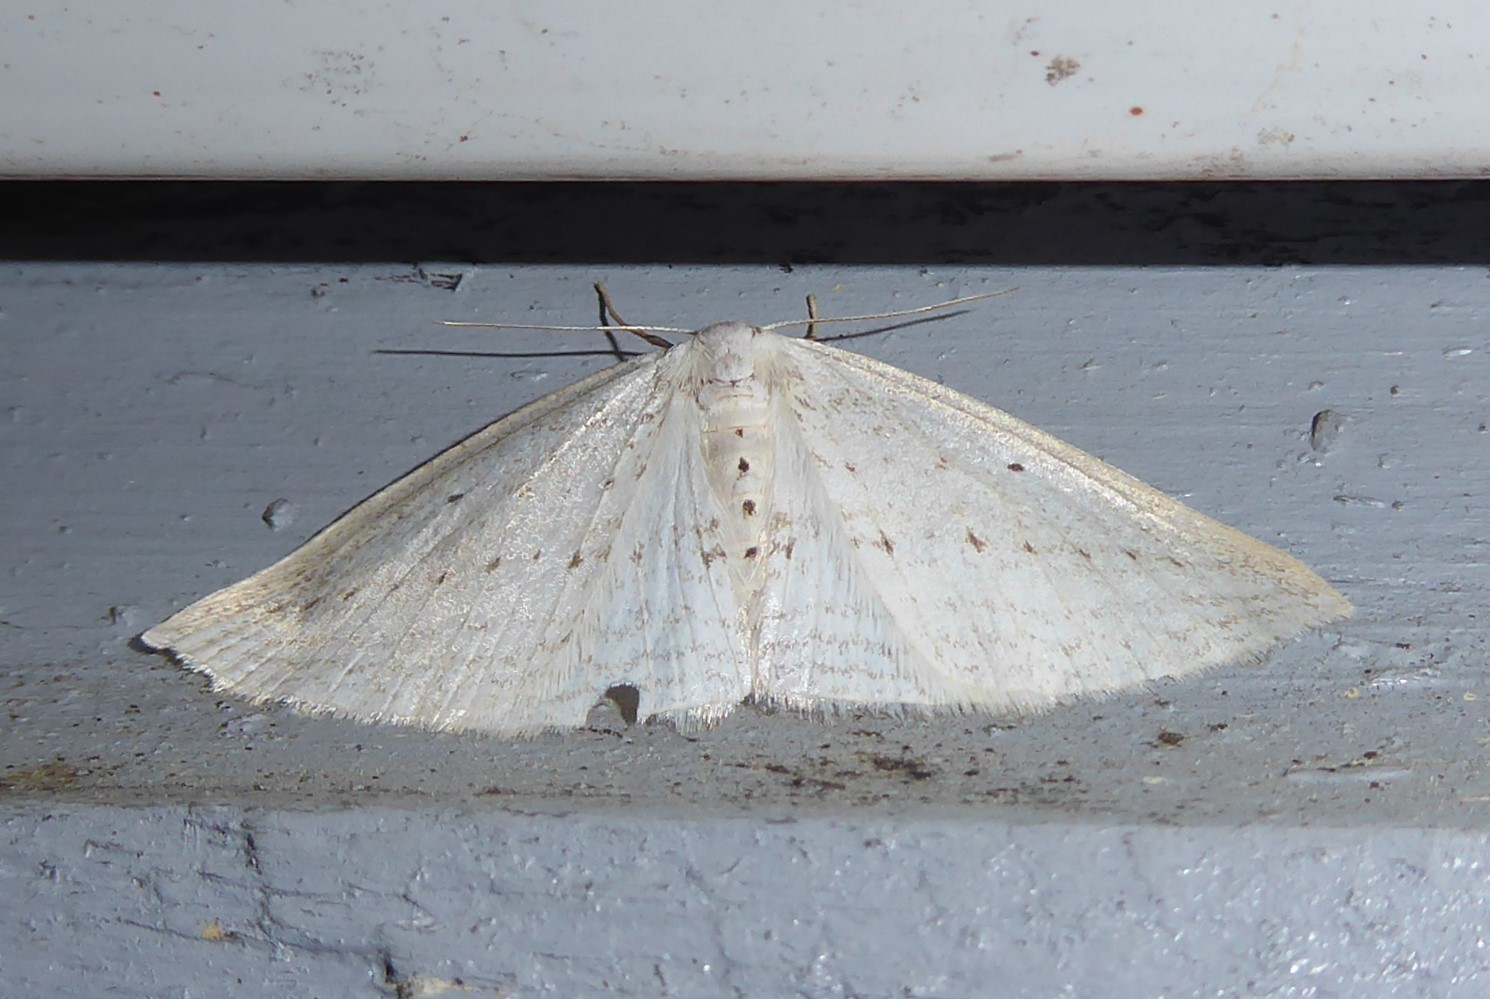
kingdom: Animalia
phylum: Arthropoda
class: Insecta
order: Lepidoptera
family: Geometridae
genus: Orthoclydon
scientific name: Orthoclydon praefectata
